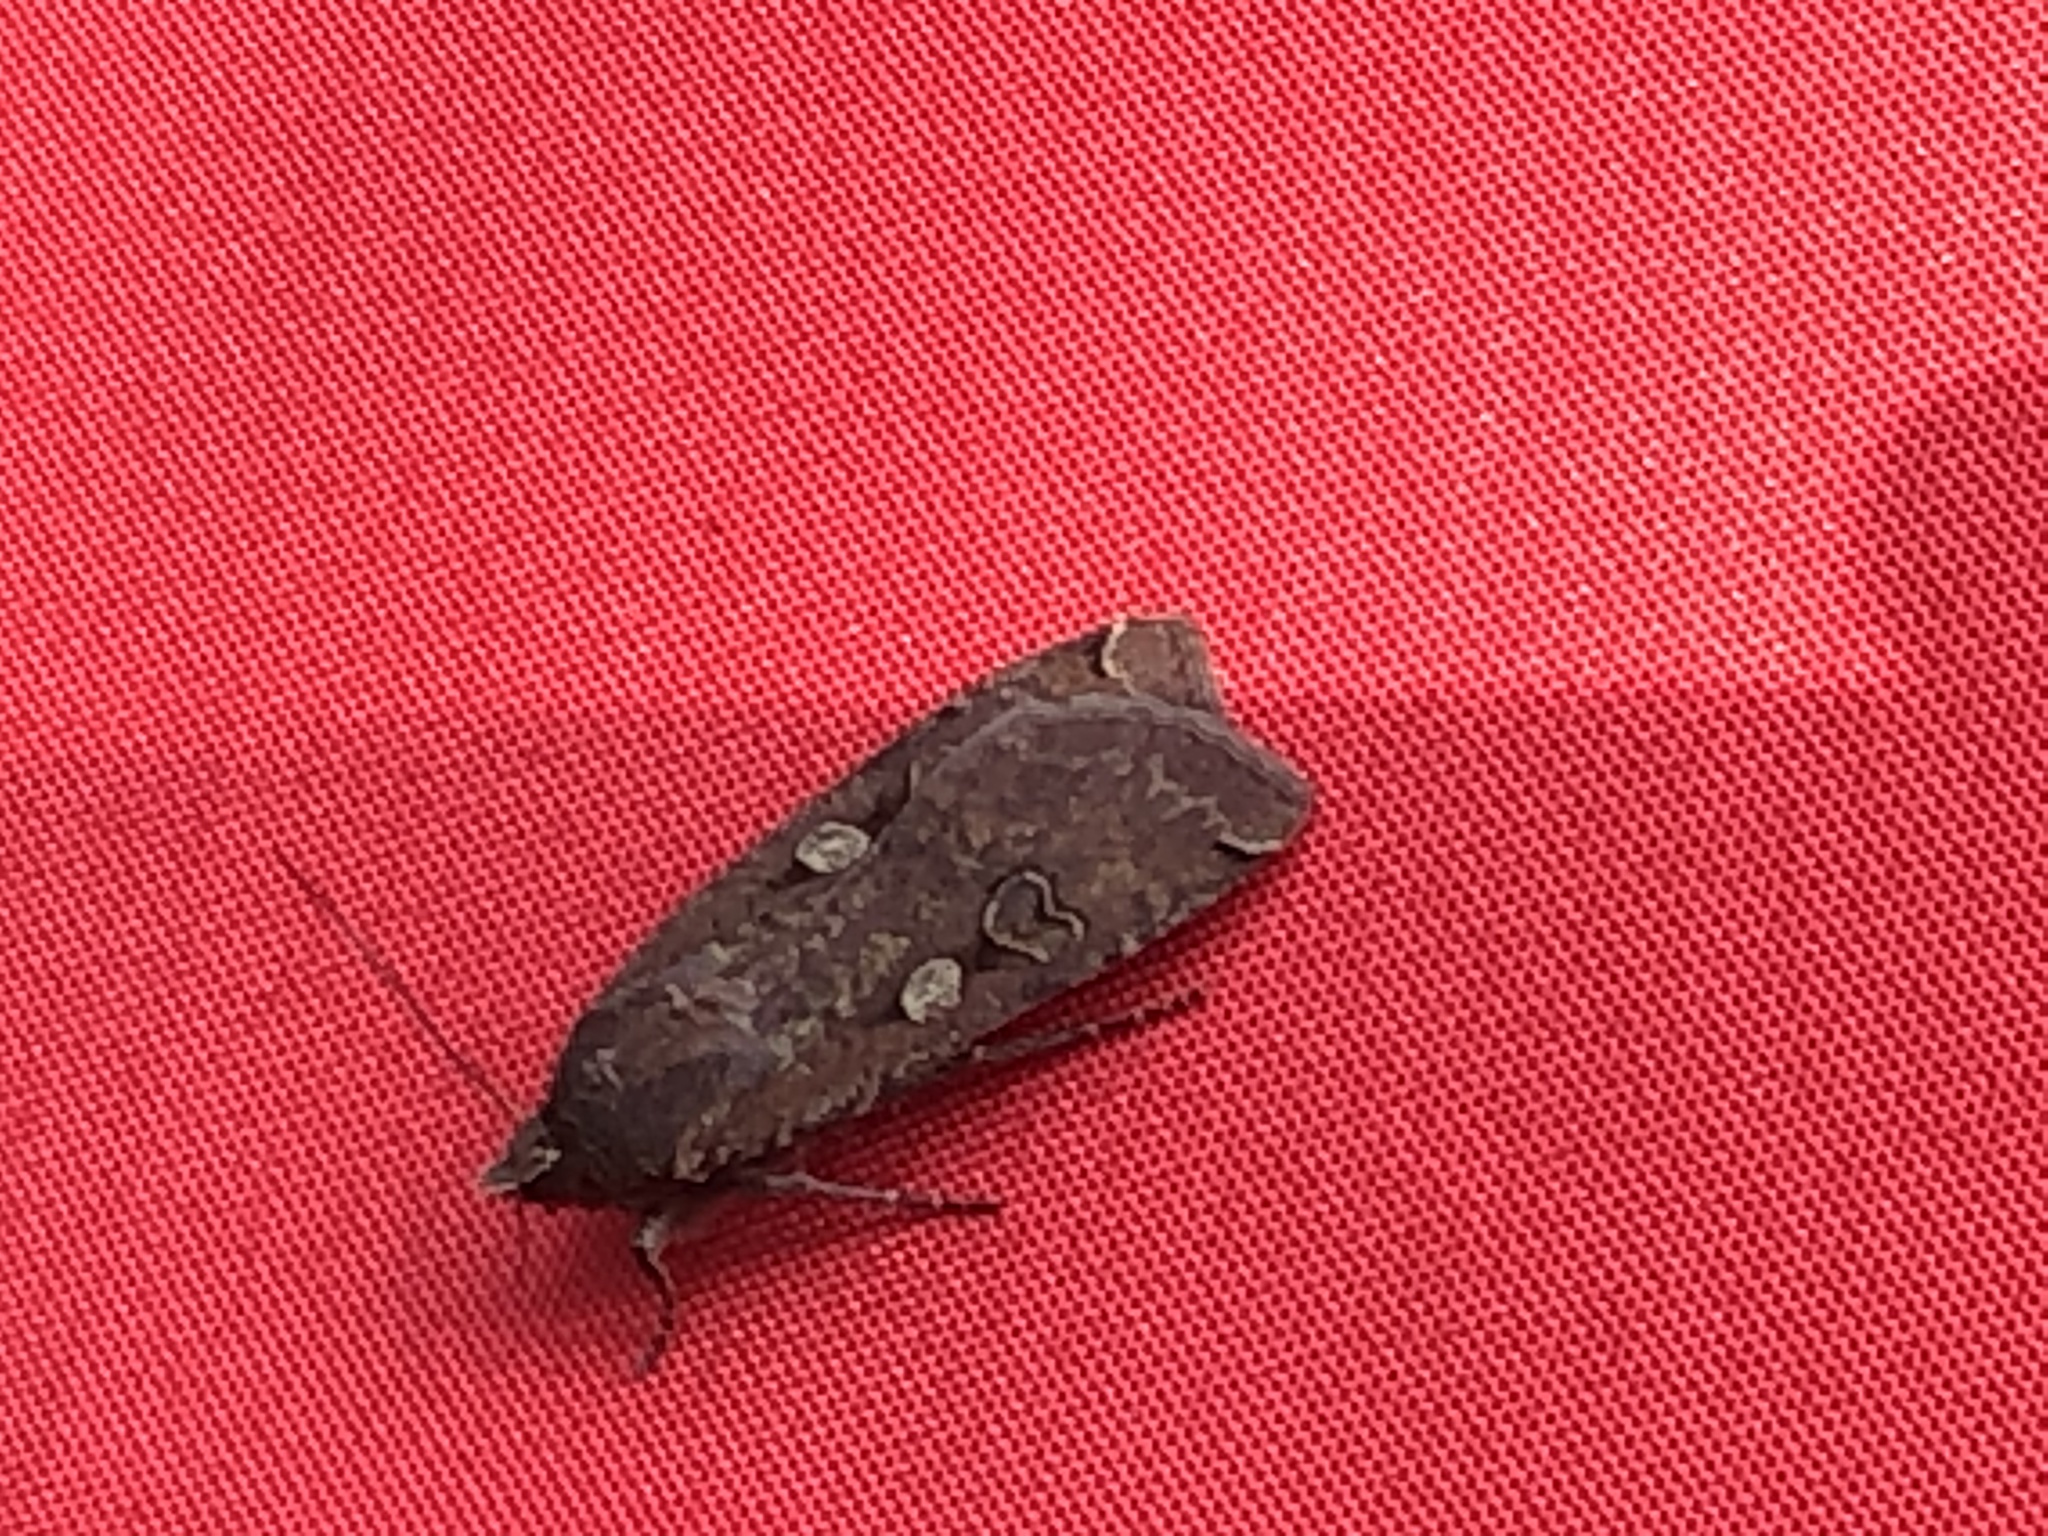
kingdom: Animalia
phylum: Arthropoda
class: Insecta
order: Lepidoptera
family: Noctuidae
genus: Noctua
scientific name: Noctua pronuba
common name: Large yellow underwing
